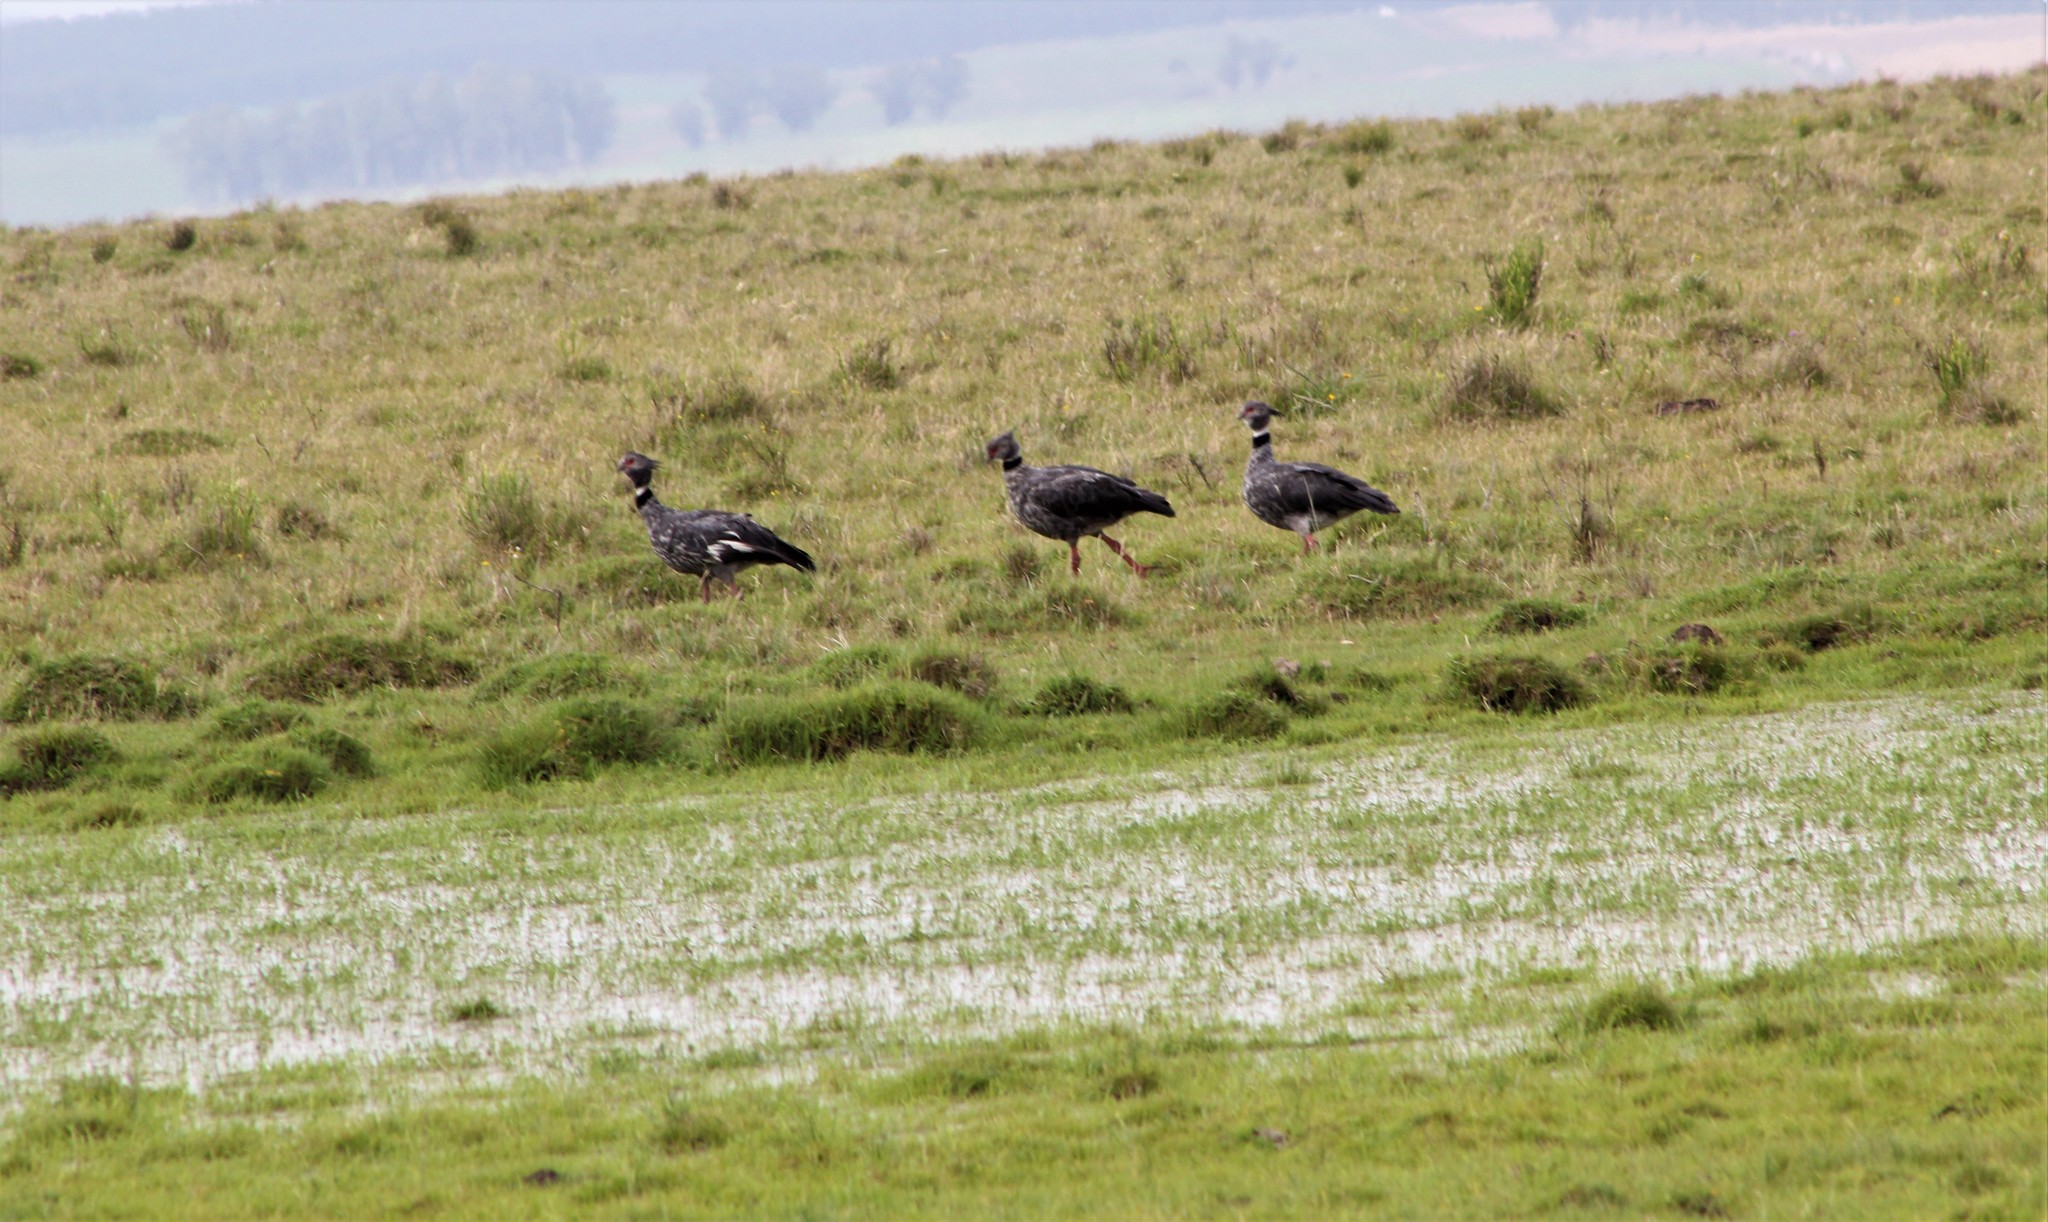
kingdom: Animalia
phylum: Chordata
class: Aves
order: Anseriformes
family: Anhimidae
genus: Chauna
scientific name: Chauna torquata
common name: Southern screamer
